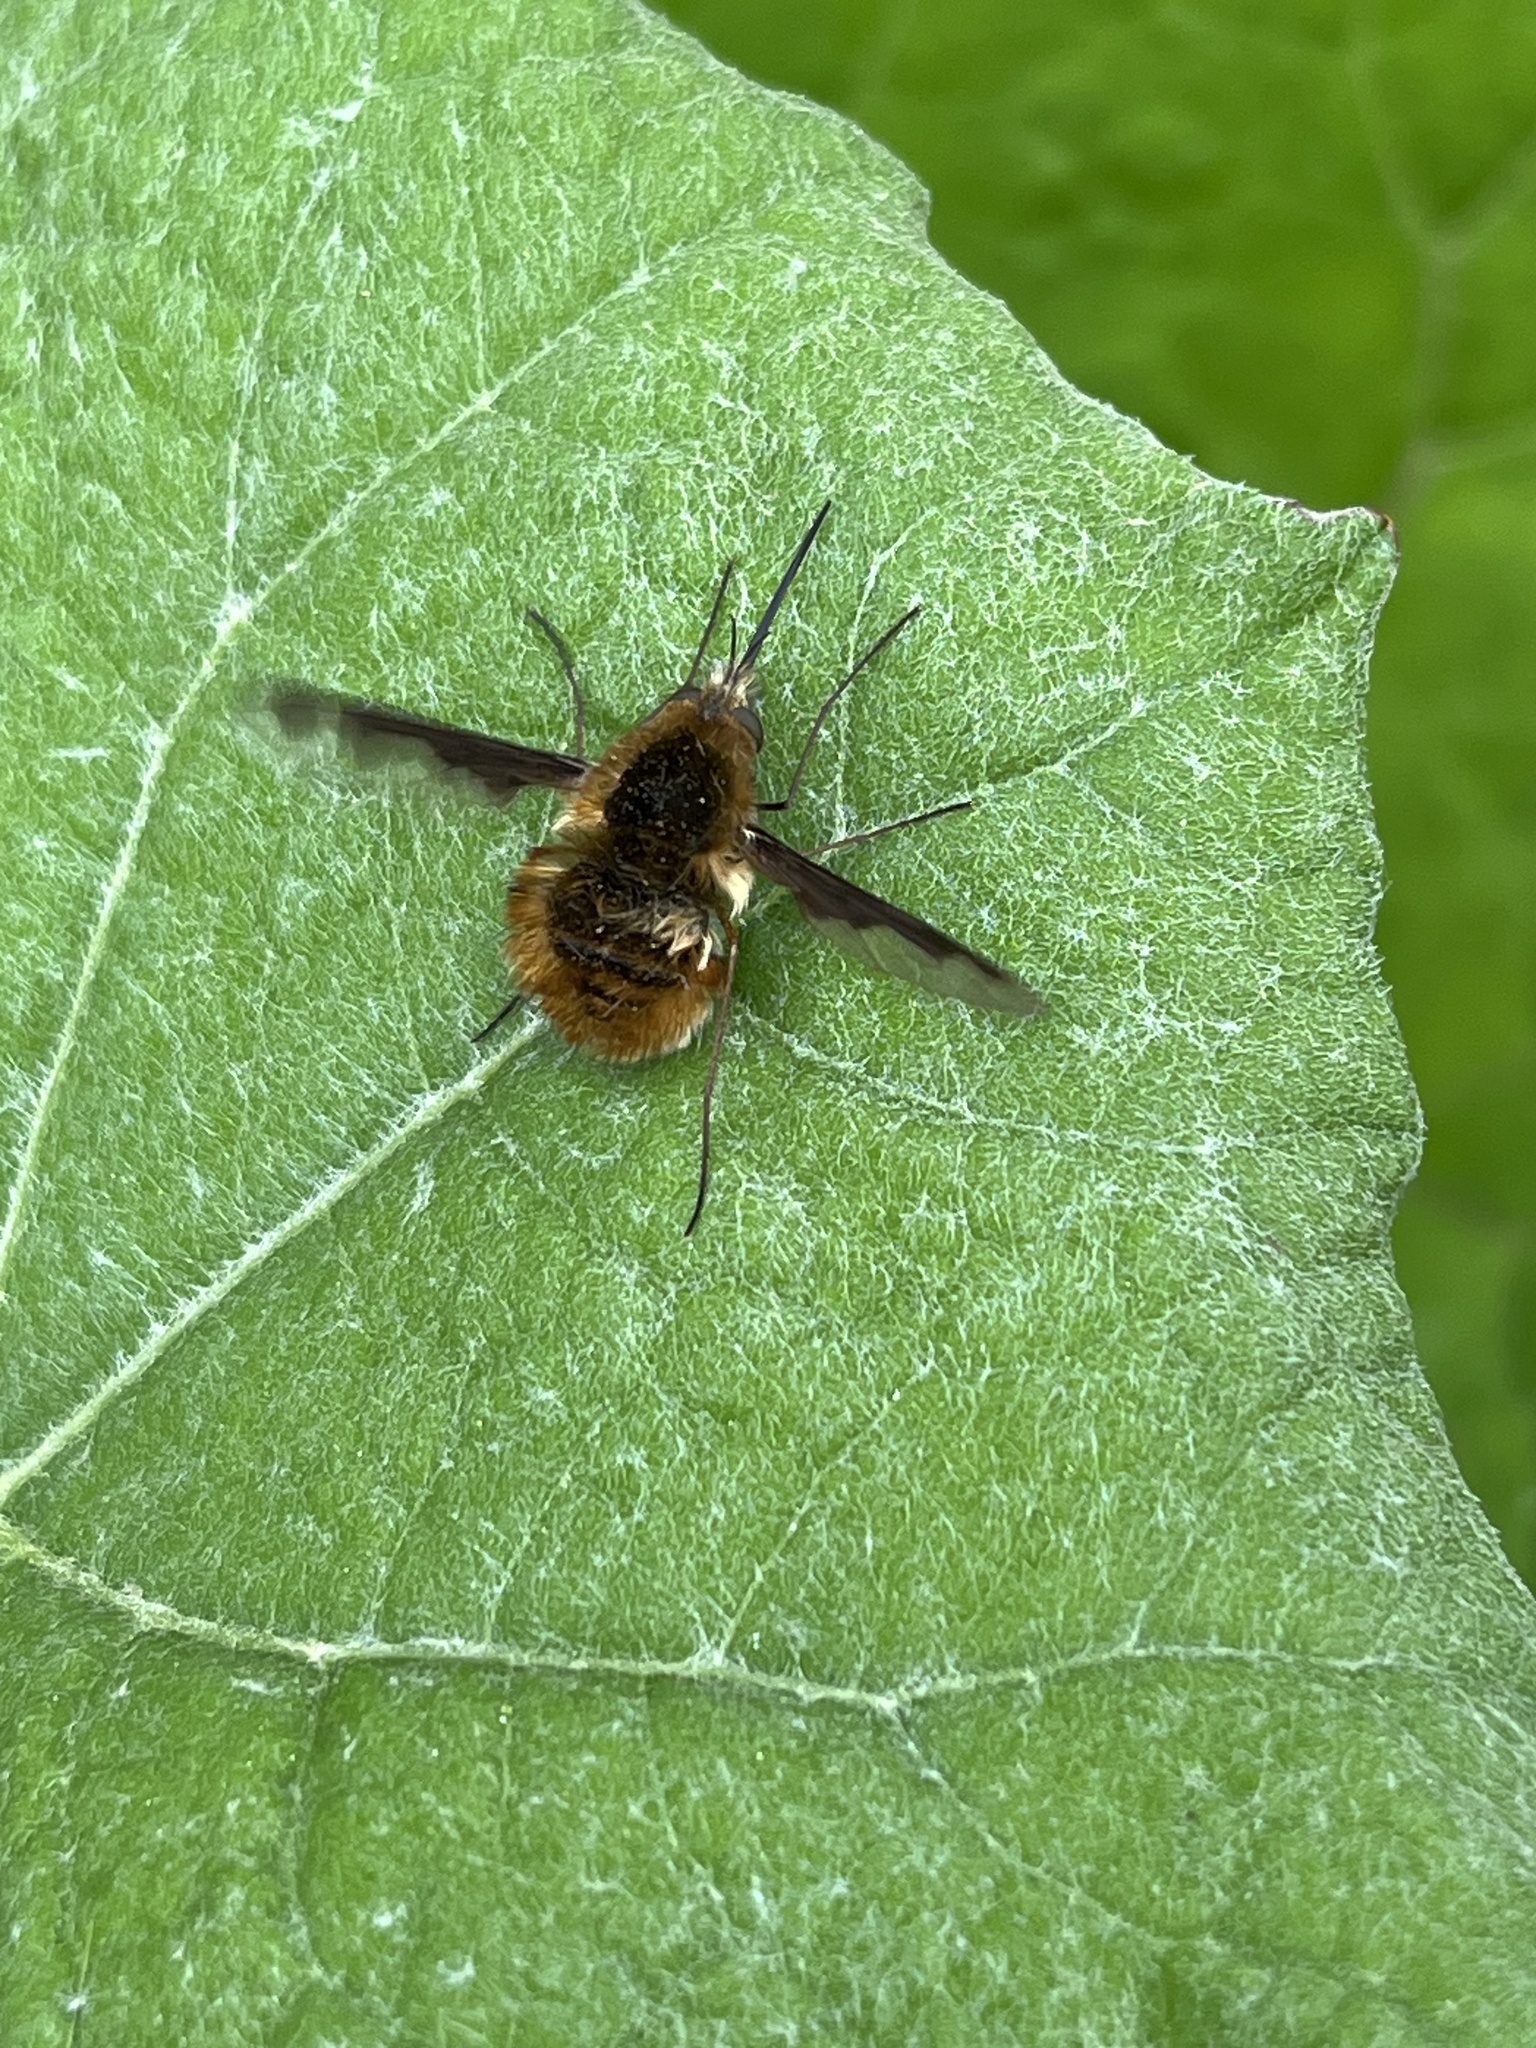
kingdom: Animalia
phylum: Arthropoda
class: Insecta
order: Diptera
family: Bombyliidae
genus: Bombylius
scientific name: Bombylius major
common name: Bee fly
